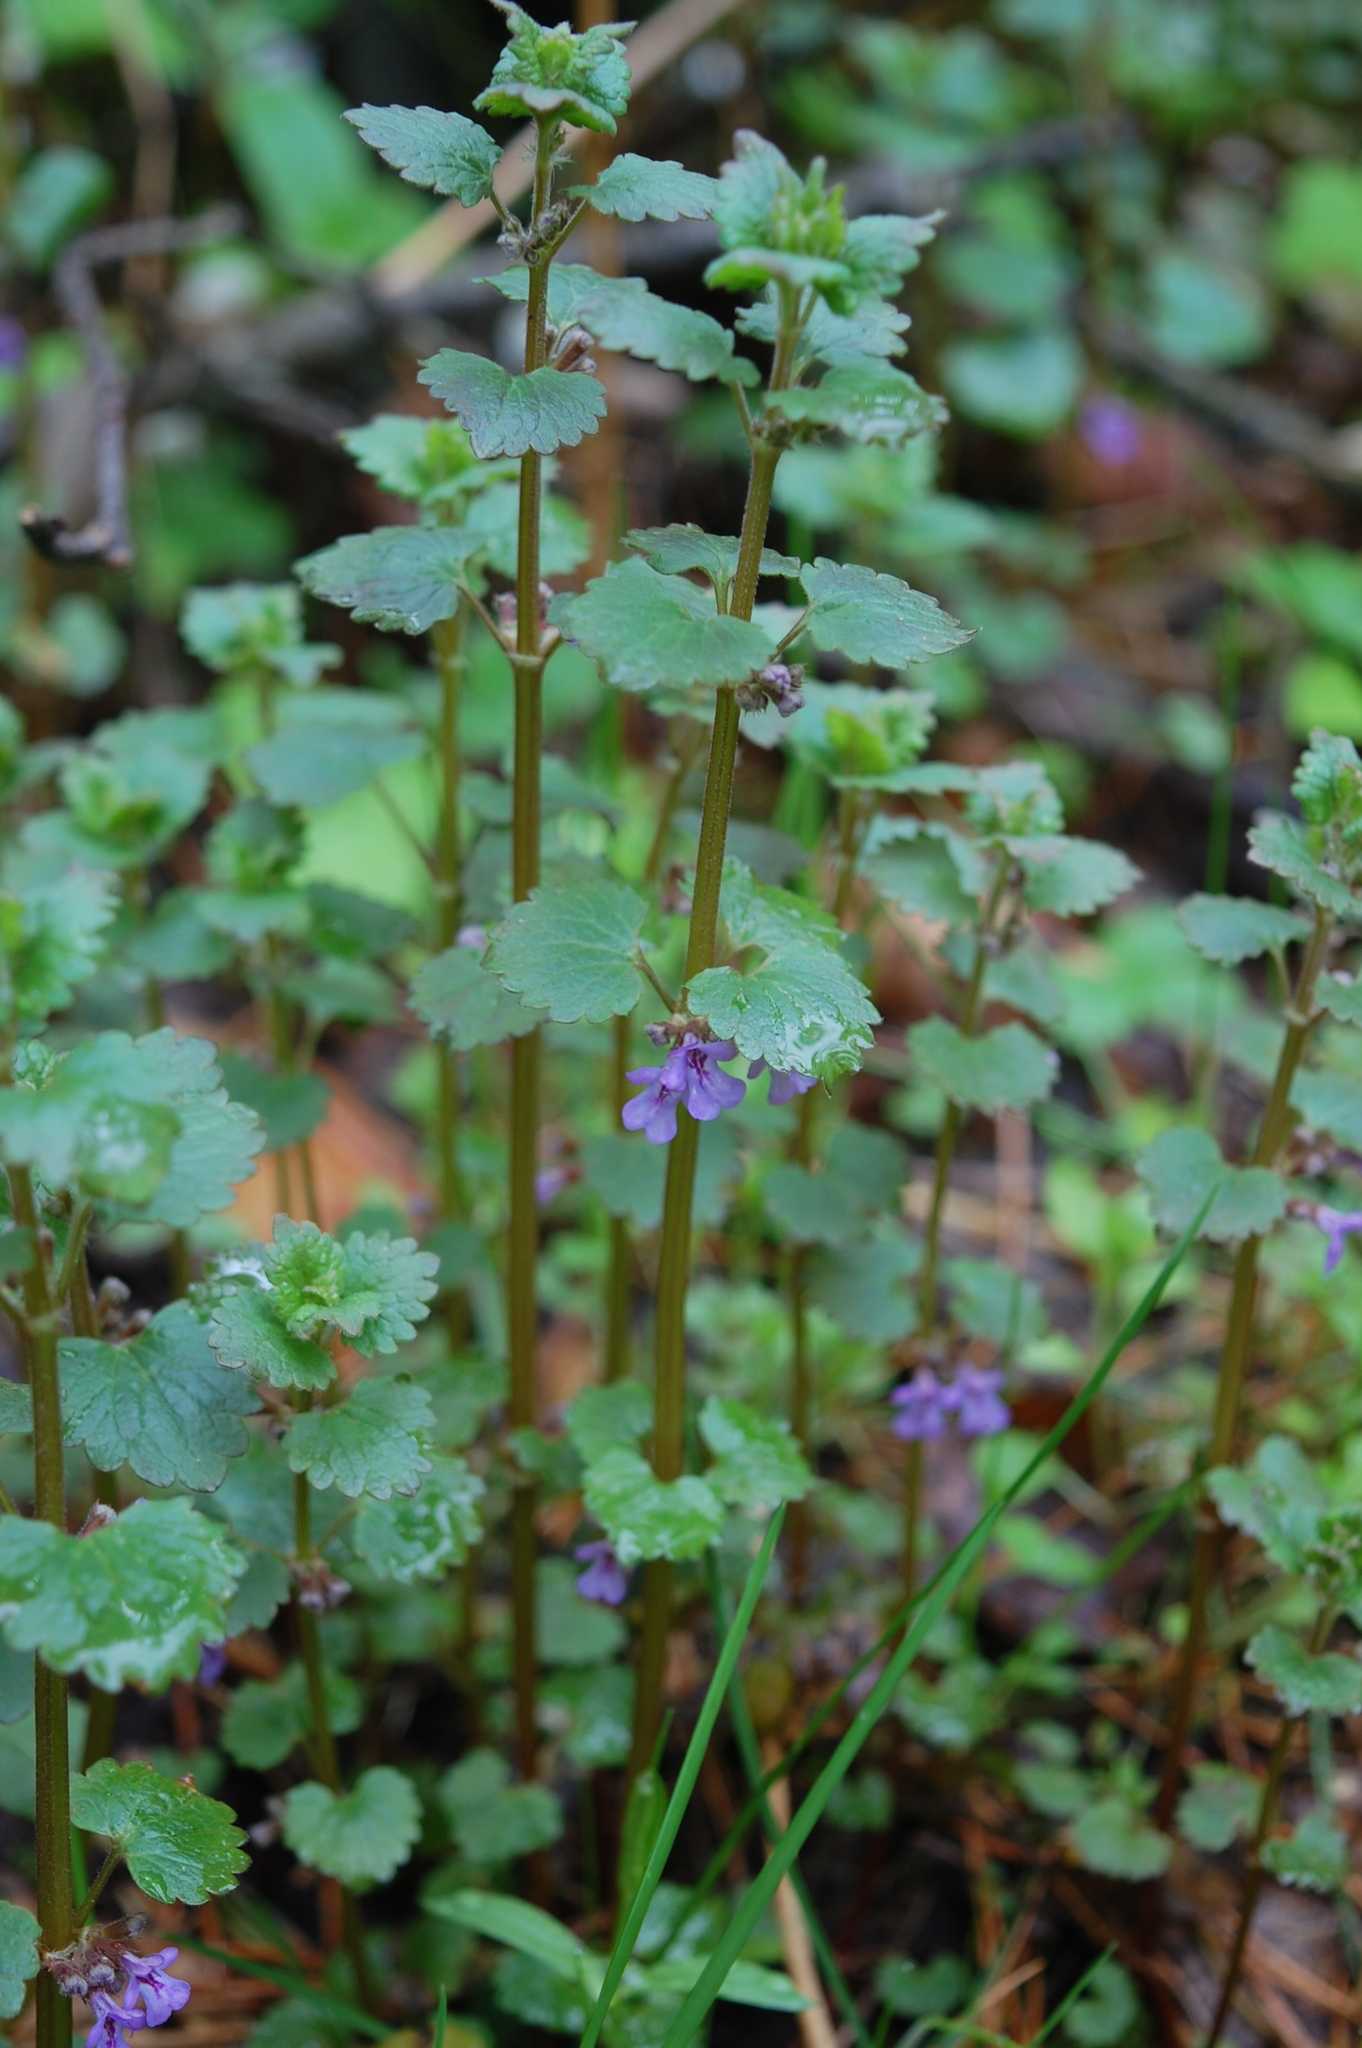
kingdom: Plantae
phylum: Tracheophyta
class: Magnoliopsida
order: Lamiales
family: Lamiaceae
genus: Glechoma
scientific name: Glechoma hederacea
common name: Ground ivy
